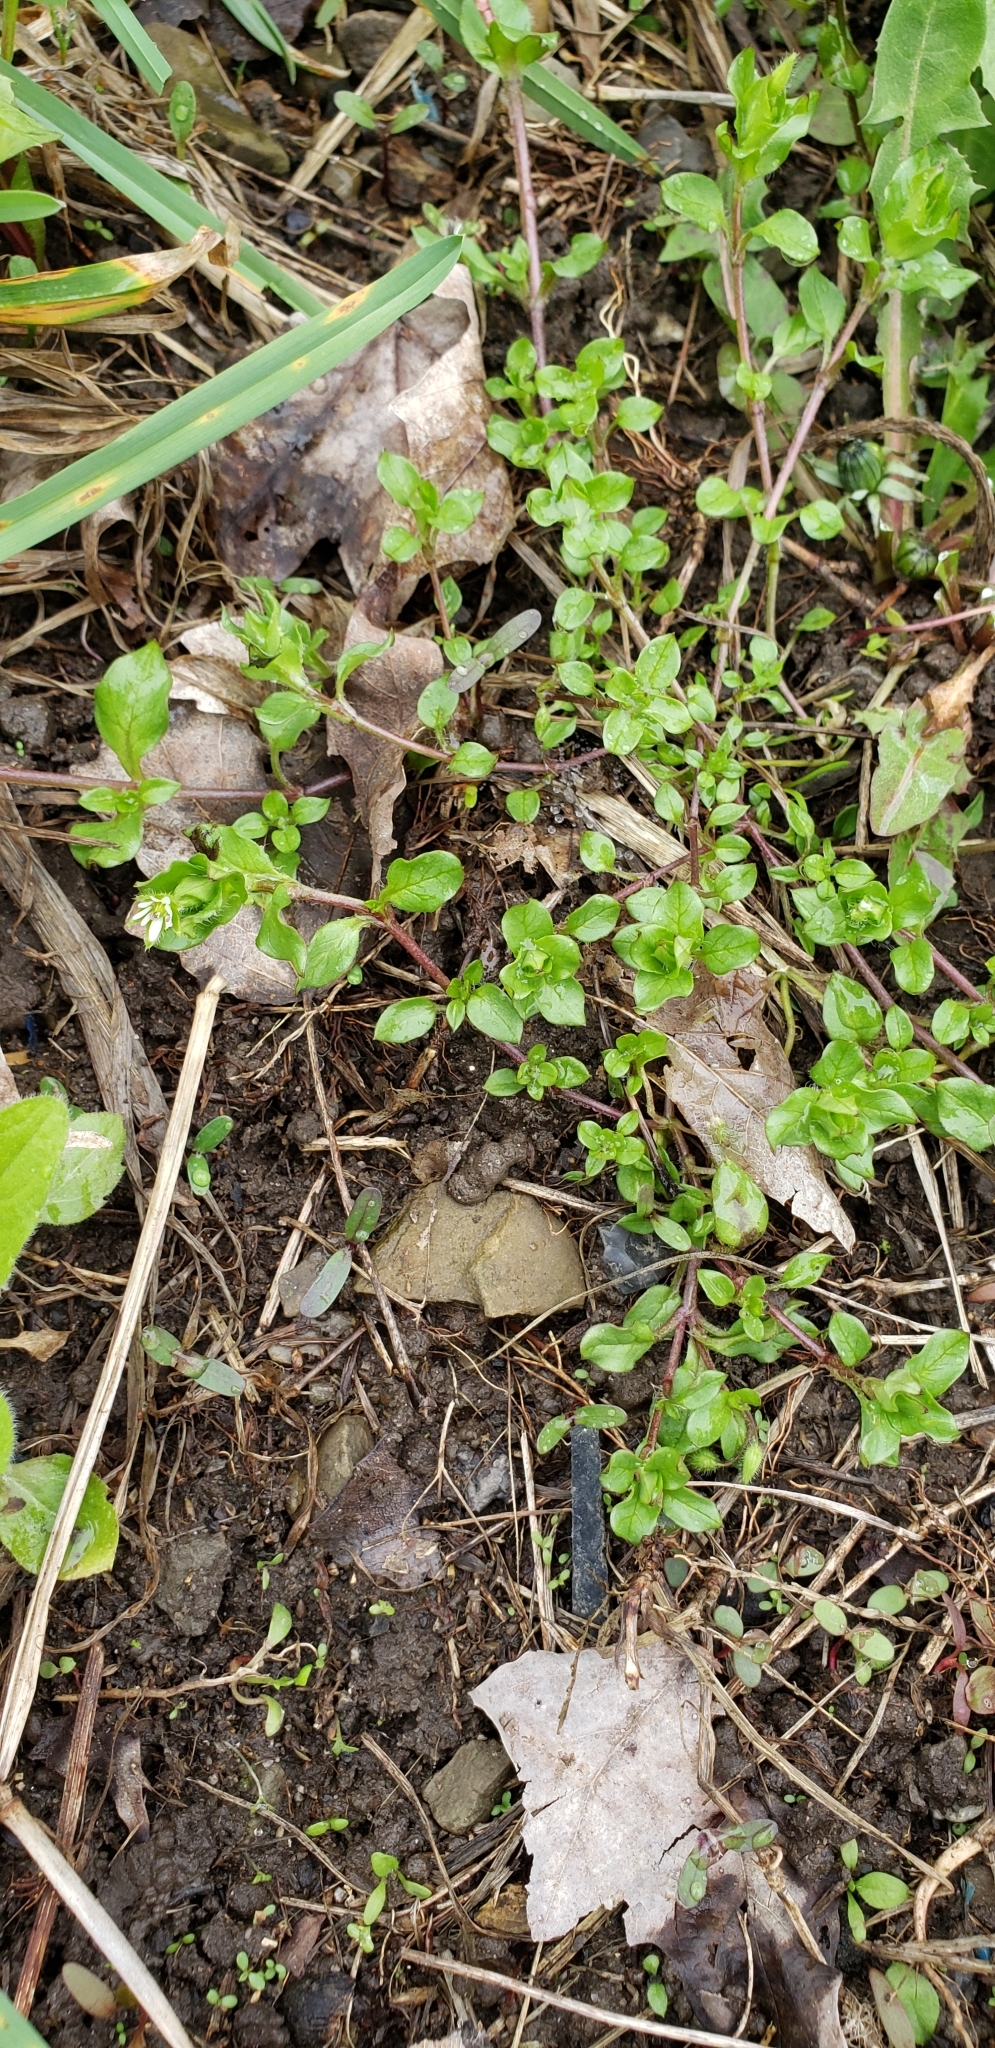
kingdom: Plantae
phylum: Tracheophyta
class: Magnoliopsida
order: Caryophyllales
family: Caryophyllaceae
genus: Stellaria
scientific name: Stellaria media
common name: Common chickweed
